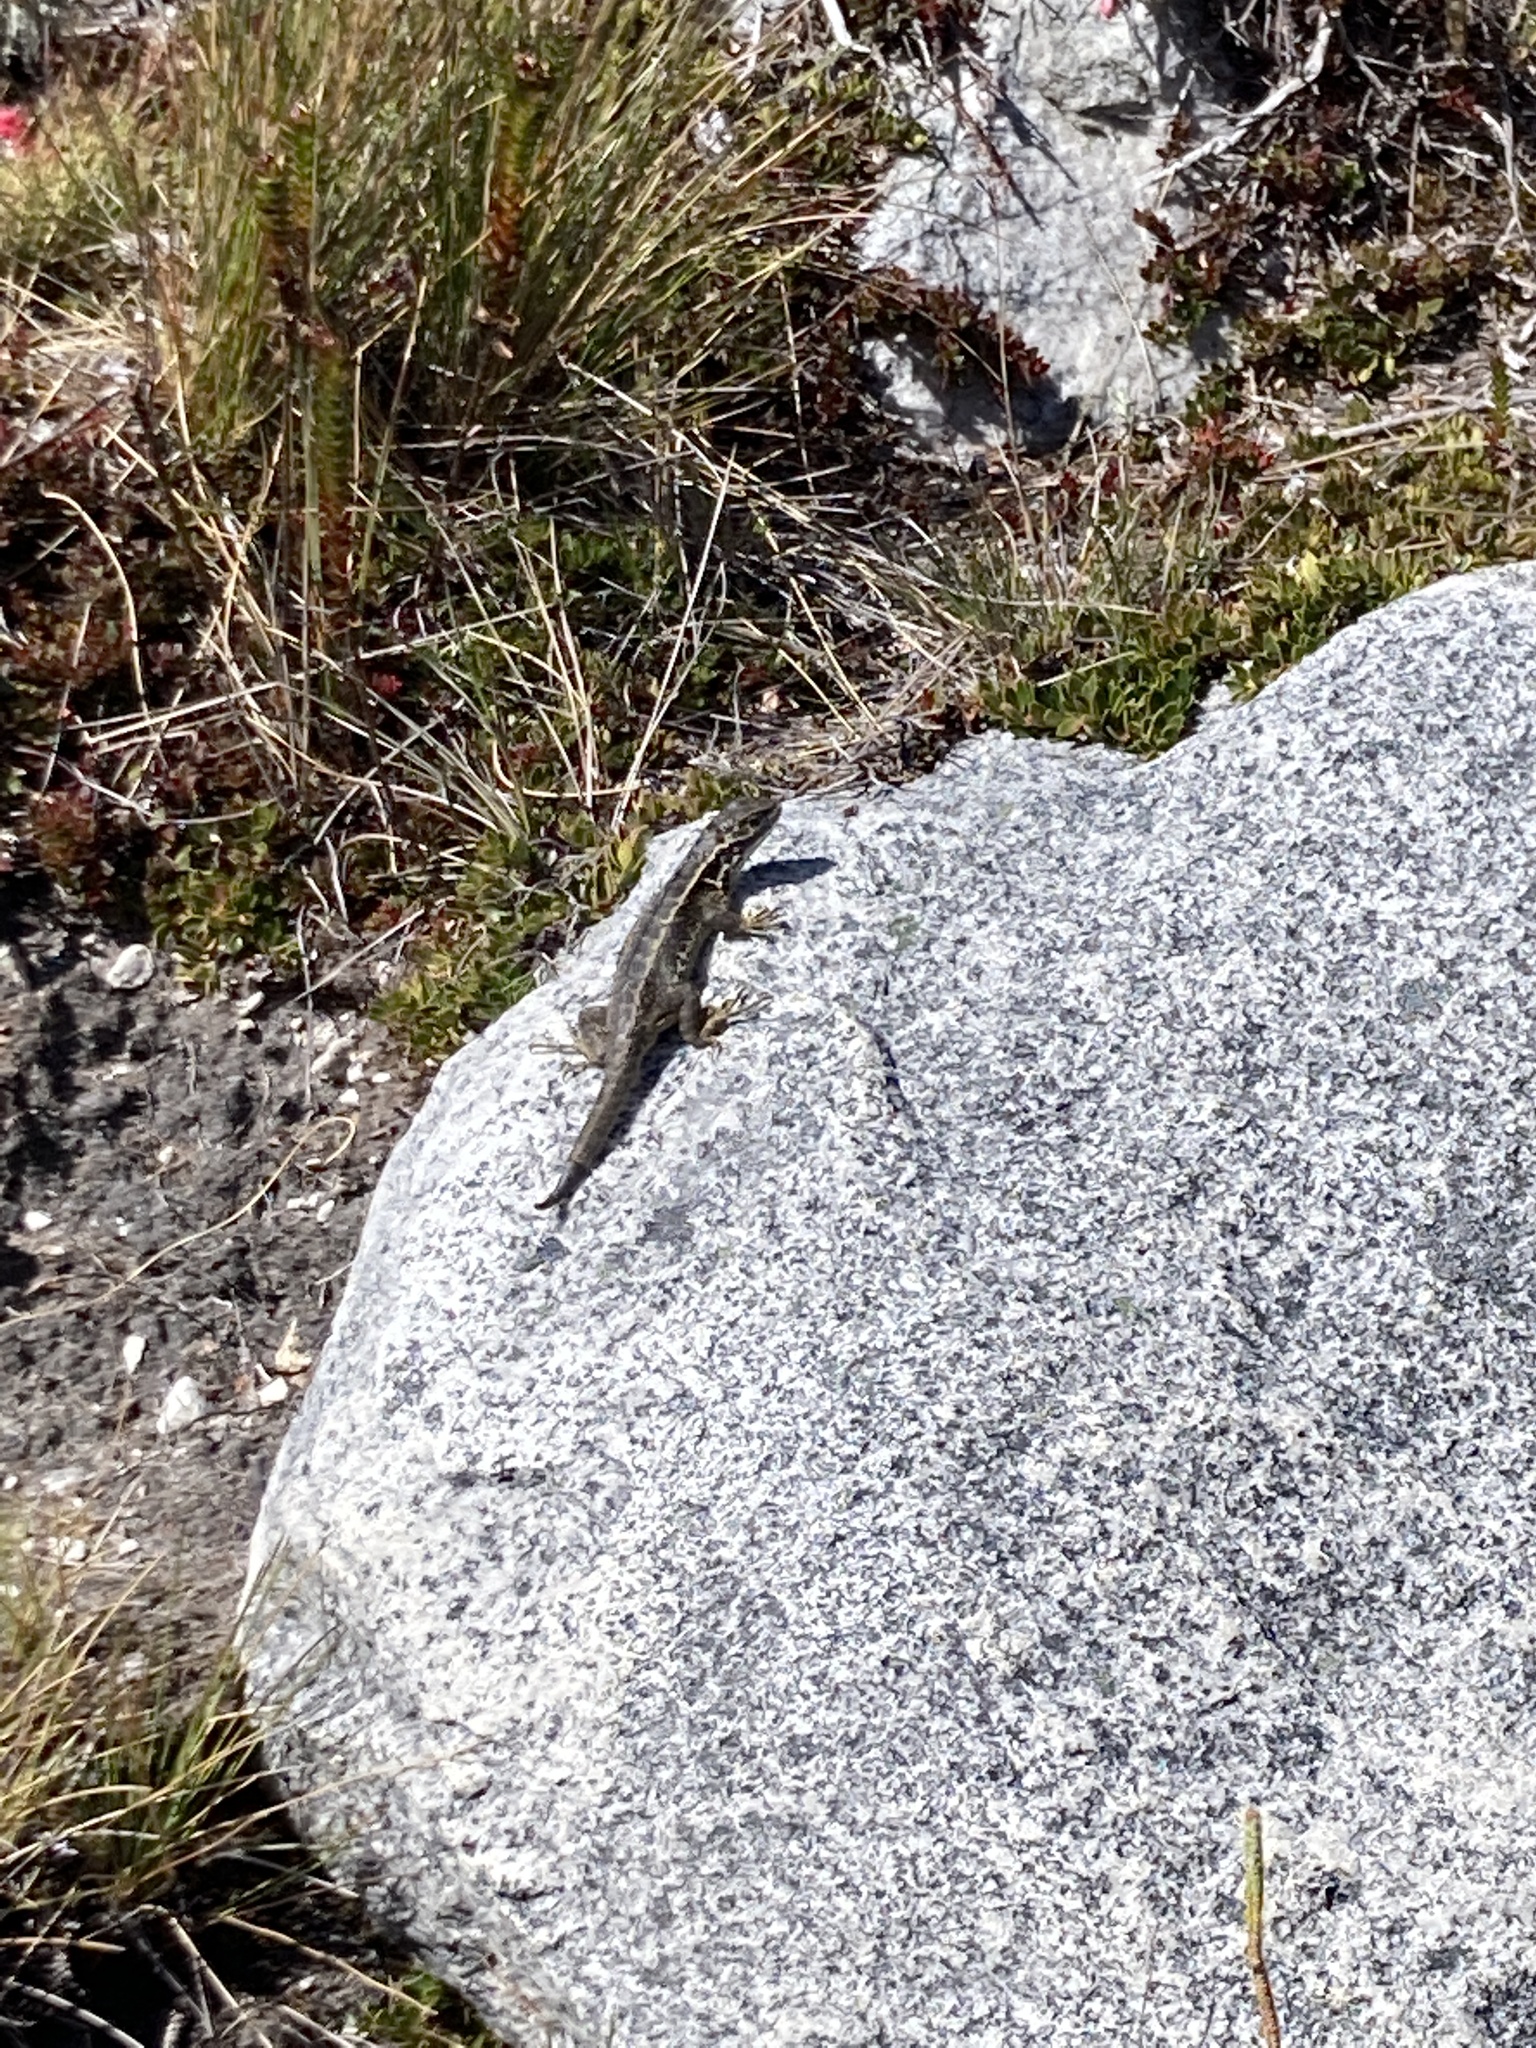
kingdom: Animalia
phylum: Chordata
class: Squamata
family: Tropiduridae
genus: Stenocercus
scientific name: Stenocercus lache
